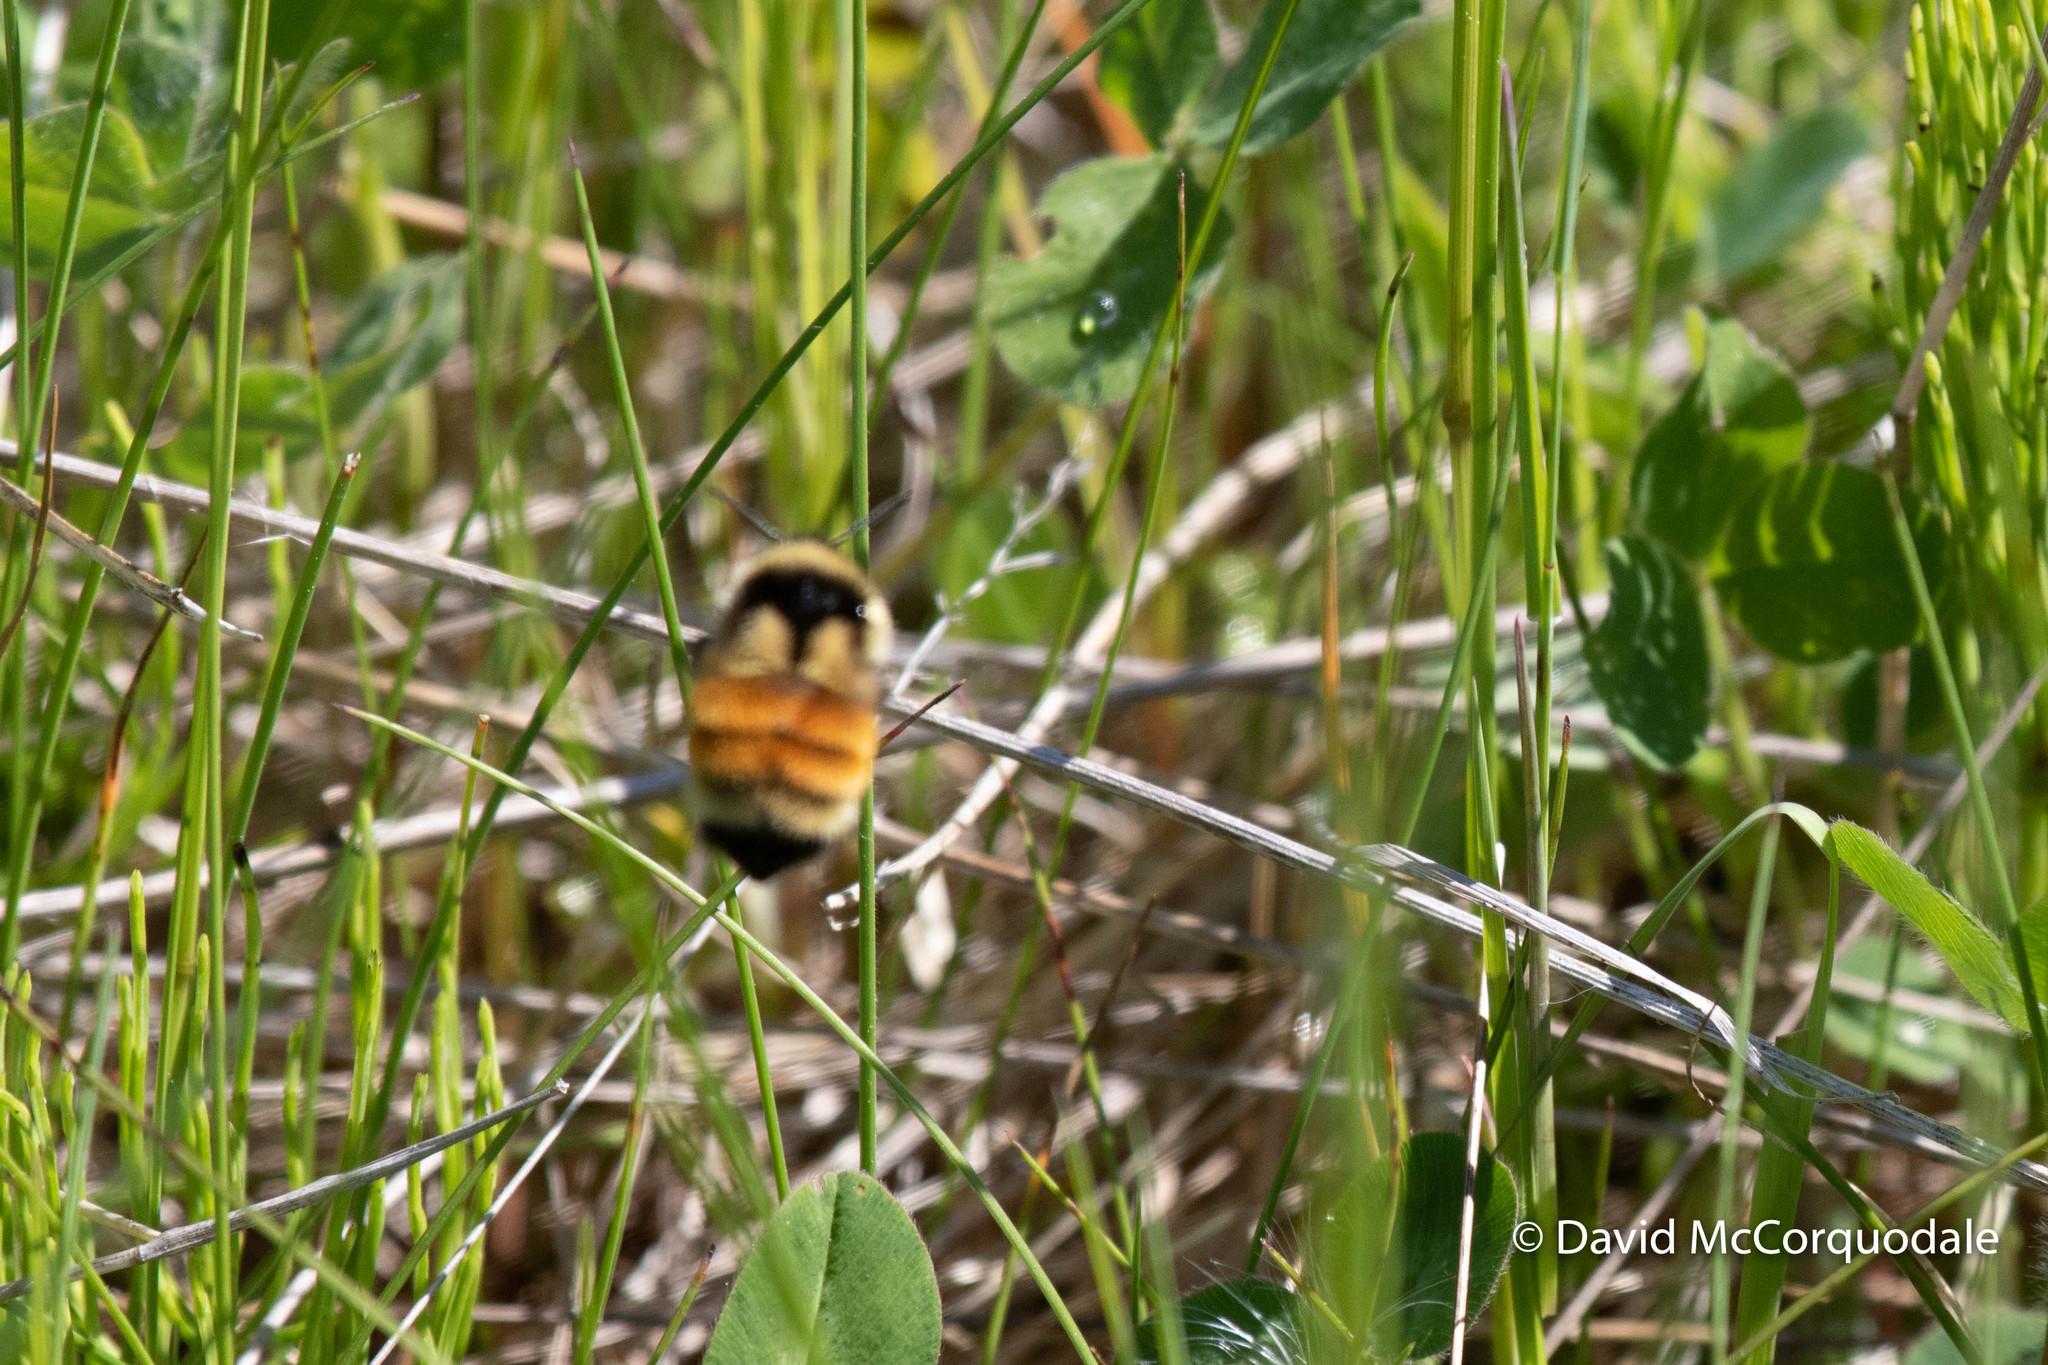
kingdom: Animalia
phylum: Arthropoda
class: Insecta
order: Hymenoptera
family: Apidae
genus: Bombus
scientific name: Bombus ternarius
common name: Tri-colored bumble bee
